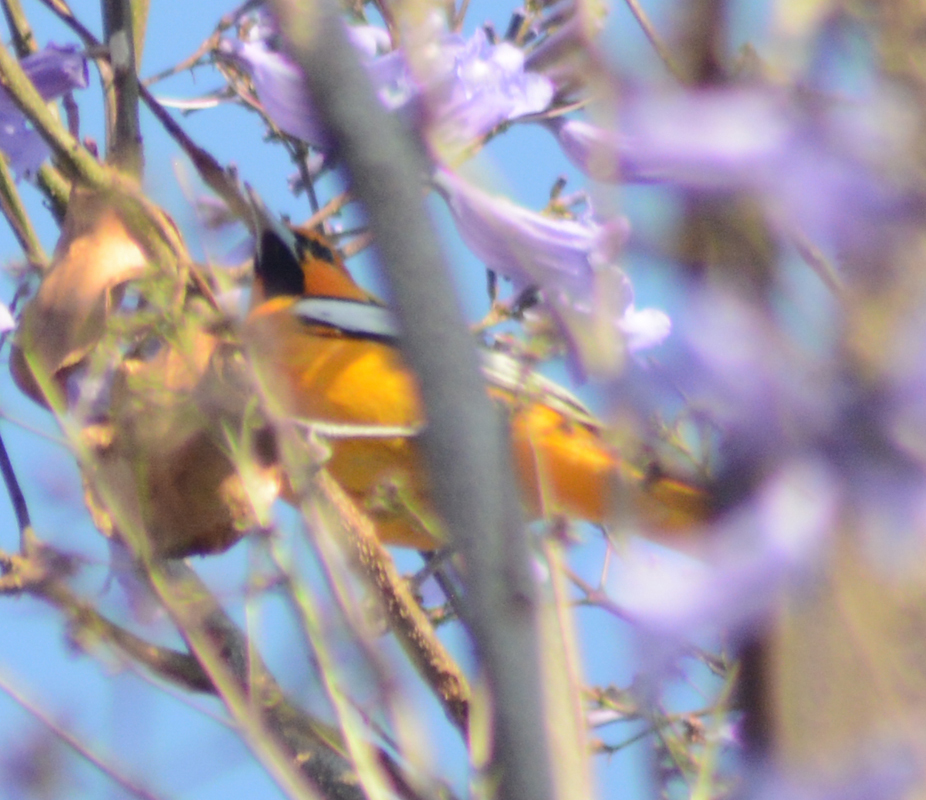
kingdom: Animalia
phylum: Chordata
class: Aves
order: Passeriformes
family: Icteridae
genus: Icterus
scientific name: Icterus abeillei
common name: Black-backed oriole
